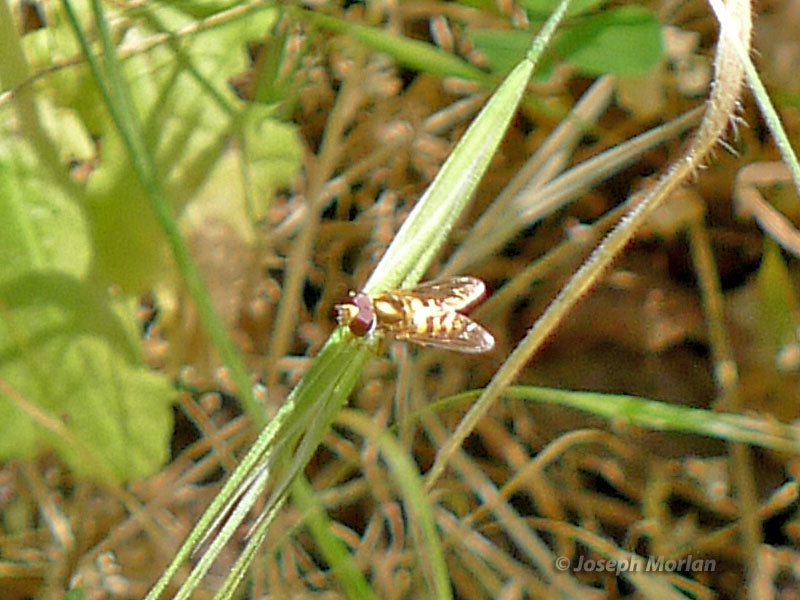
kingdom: Animalia
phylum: Arthropoda
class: Insecta
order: Diptera
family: Syrphidae
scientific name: Syrphidae
